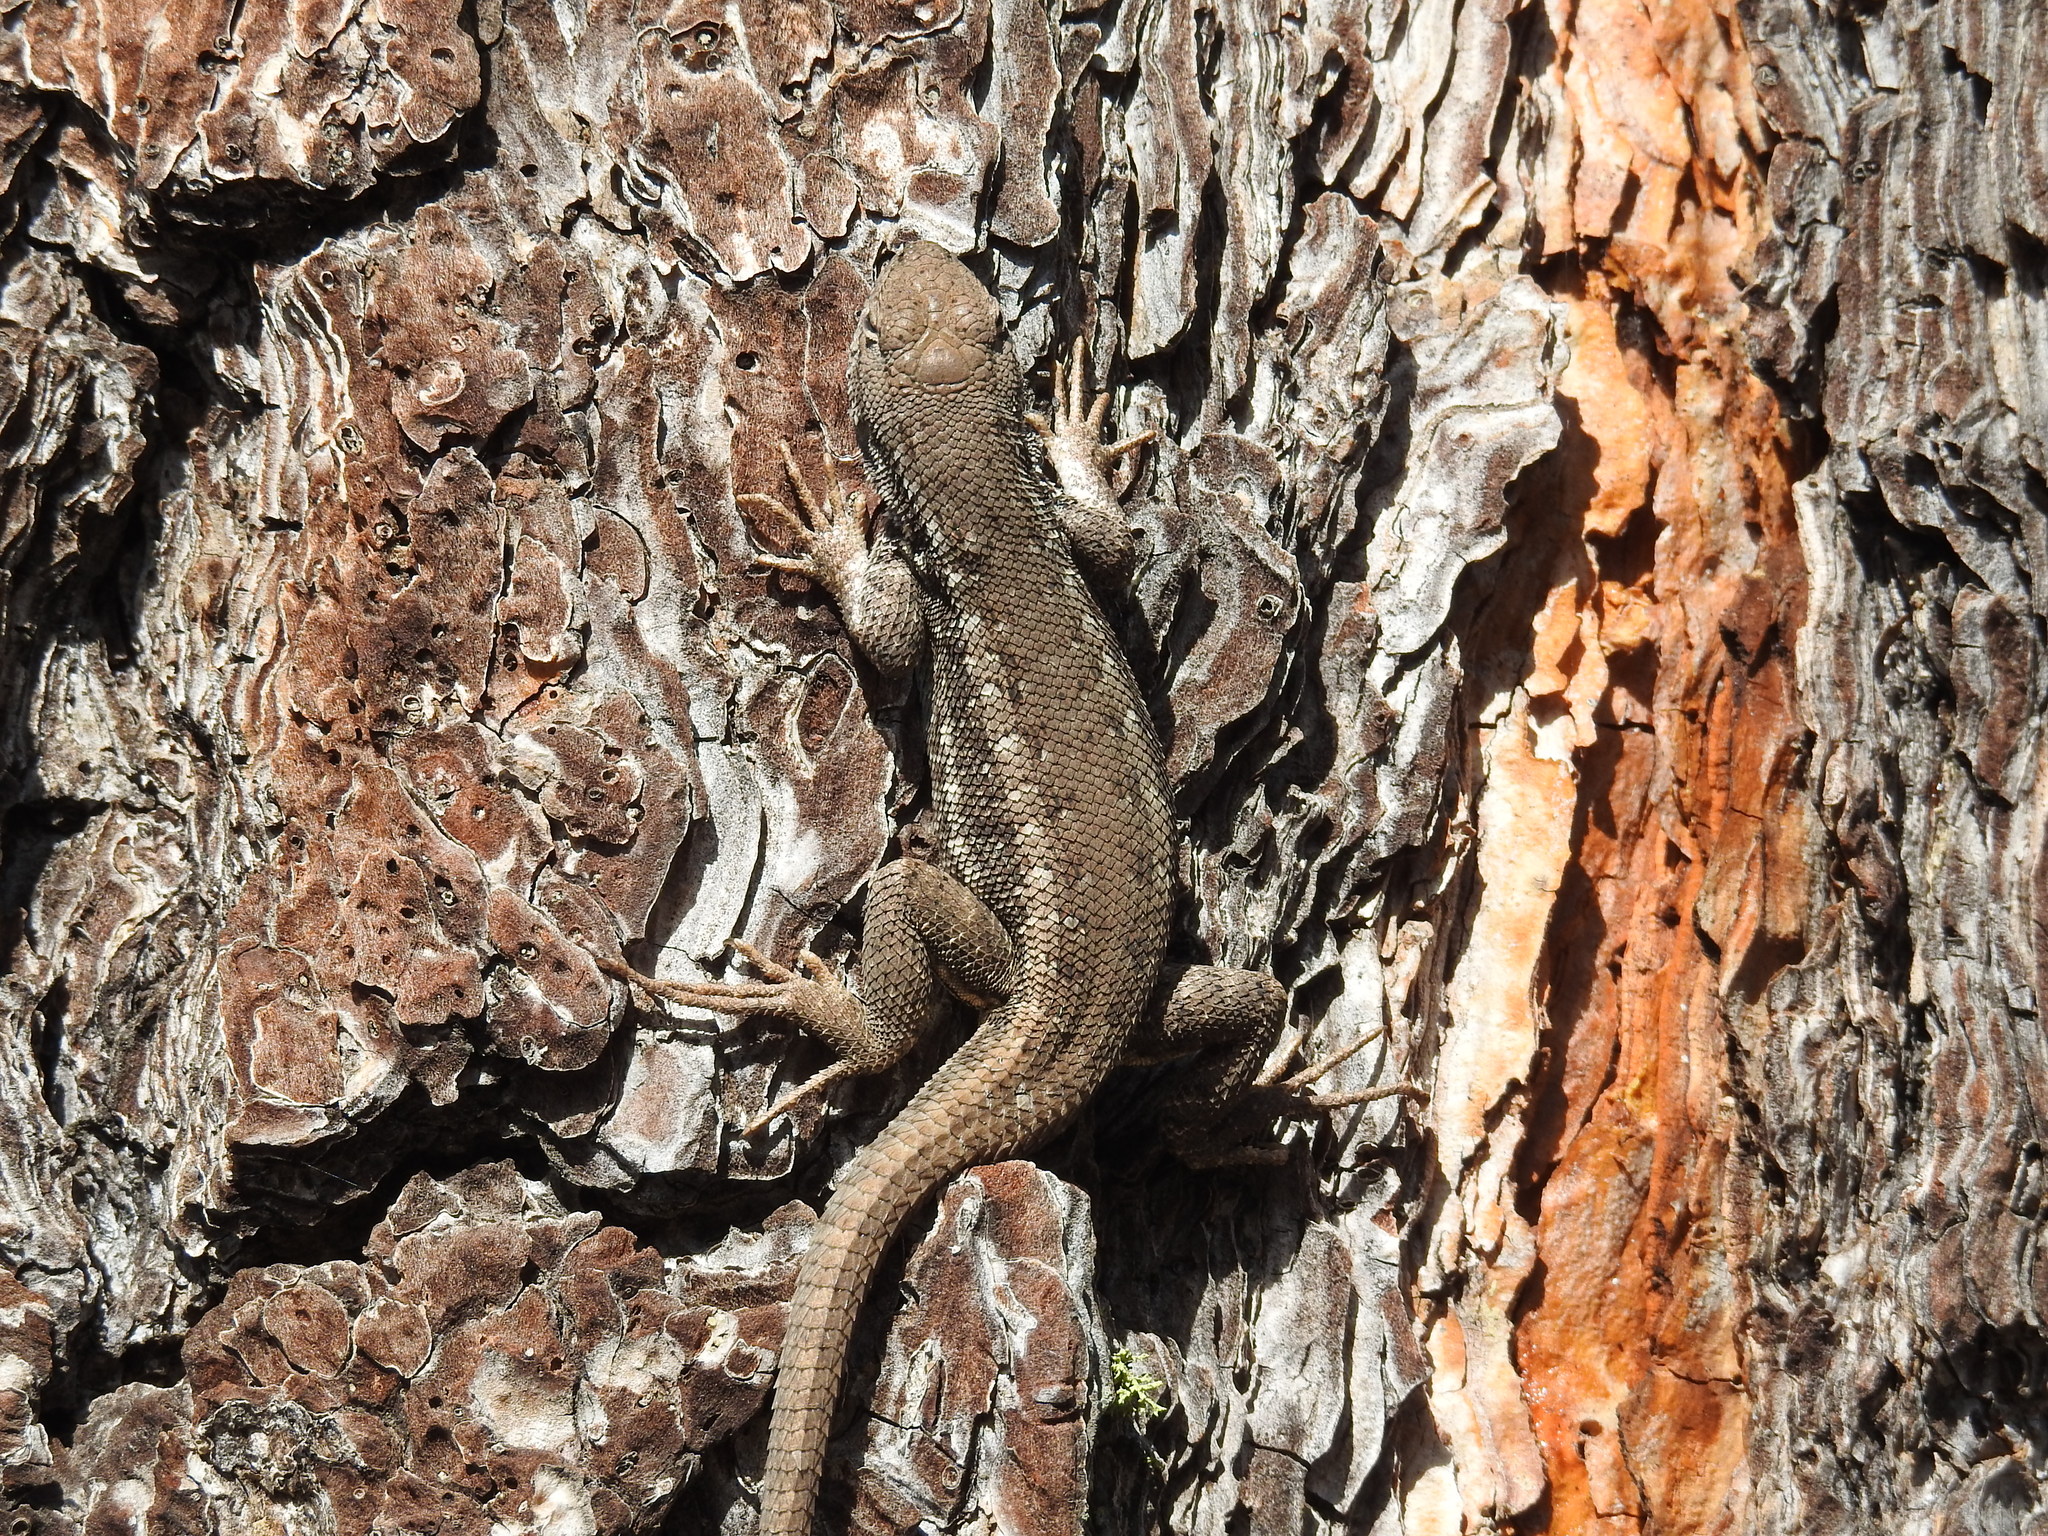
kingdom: Animalia
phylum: Chordata
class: Squamata
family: Phrynosomatidae
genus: Sceloporus
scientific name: Sceloporus graciosus
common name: Sagebrush lizard
